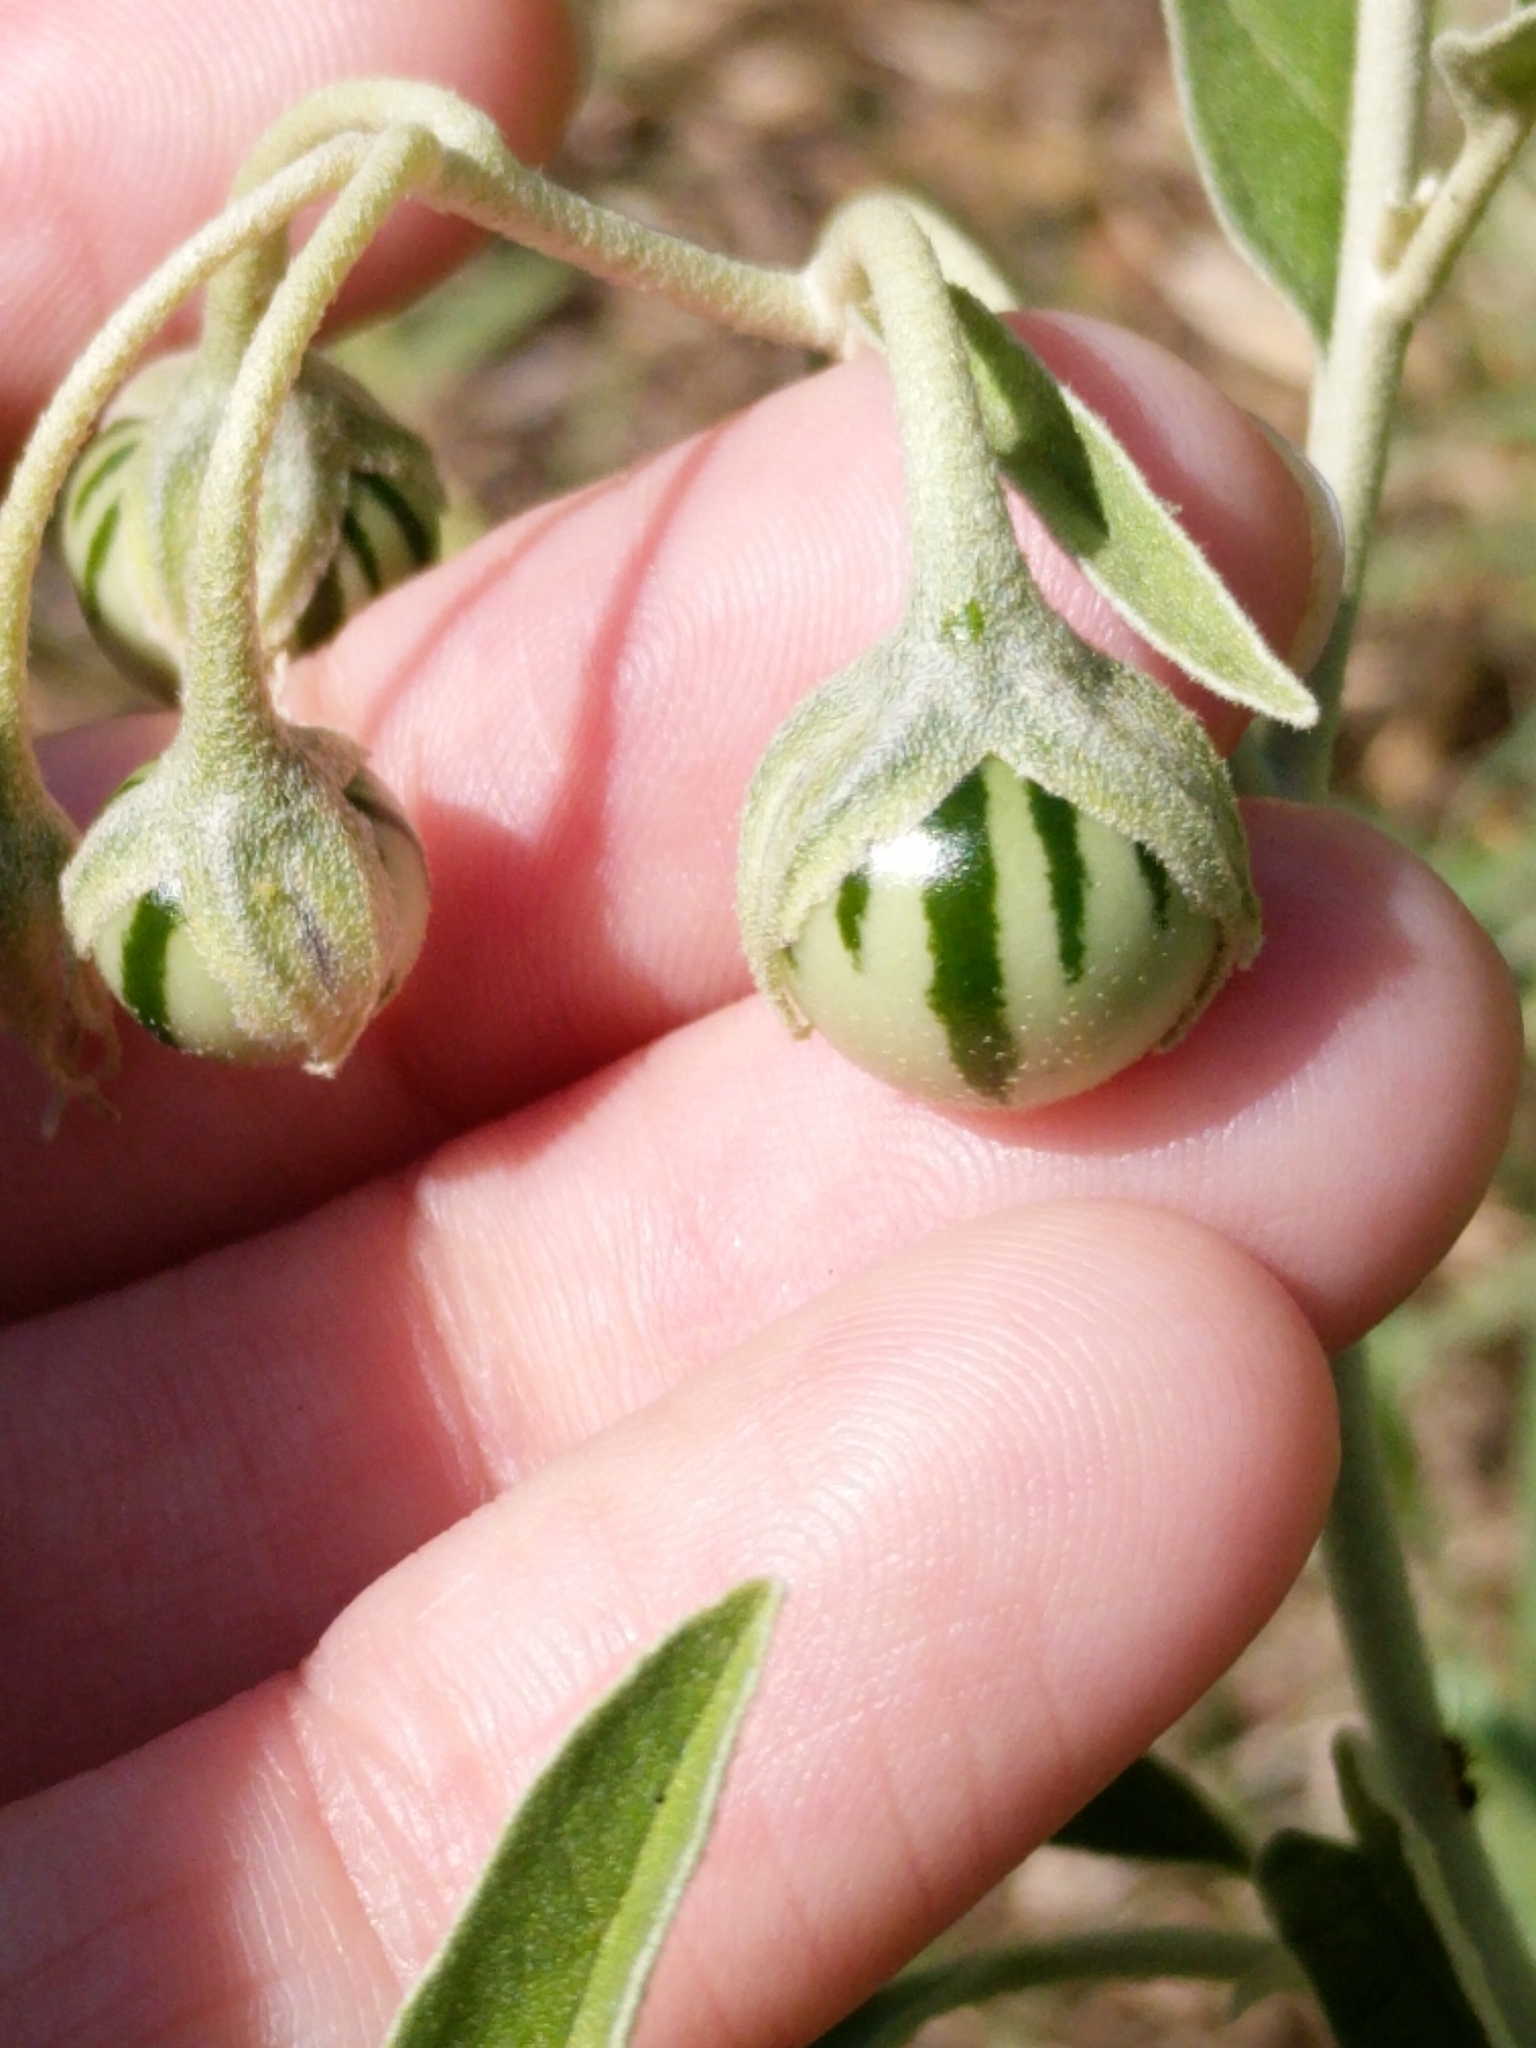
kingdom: Plantae
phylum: Tracheophyta
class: Magnoliopsida
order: Solanales
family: Solanaceae
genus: Solanum
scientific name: Solanum elaeagnifolium
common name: Silverleaf nightshade
